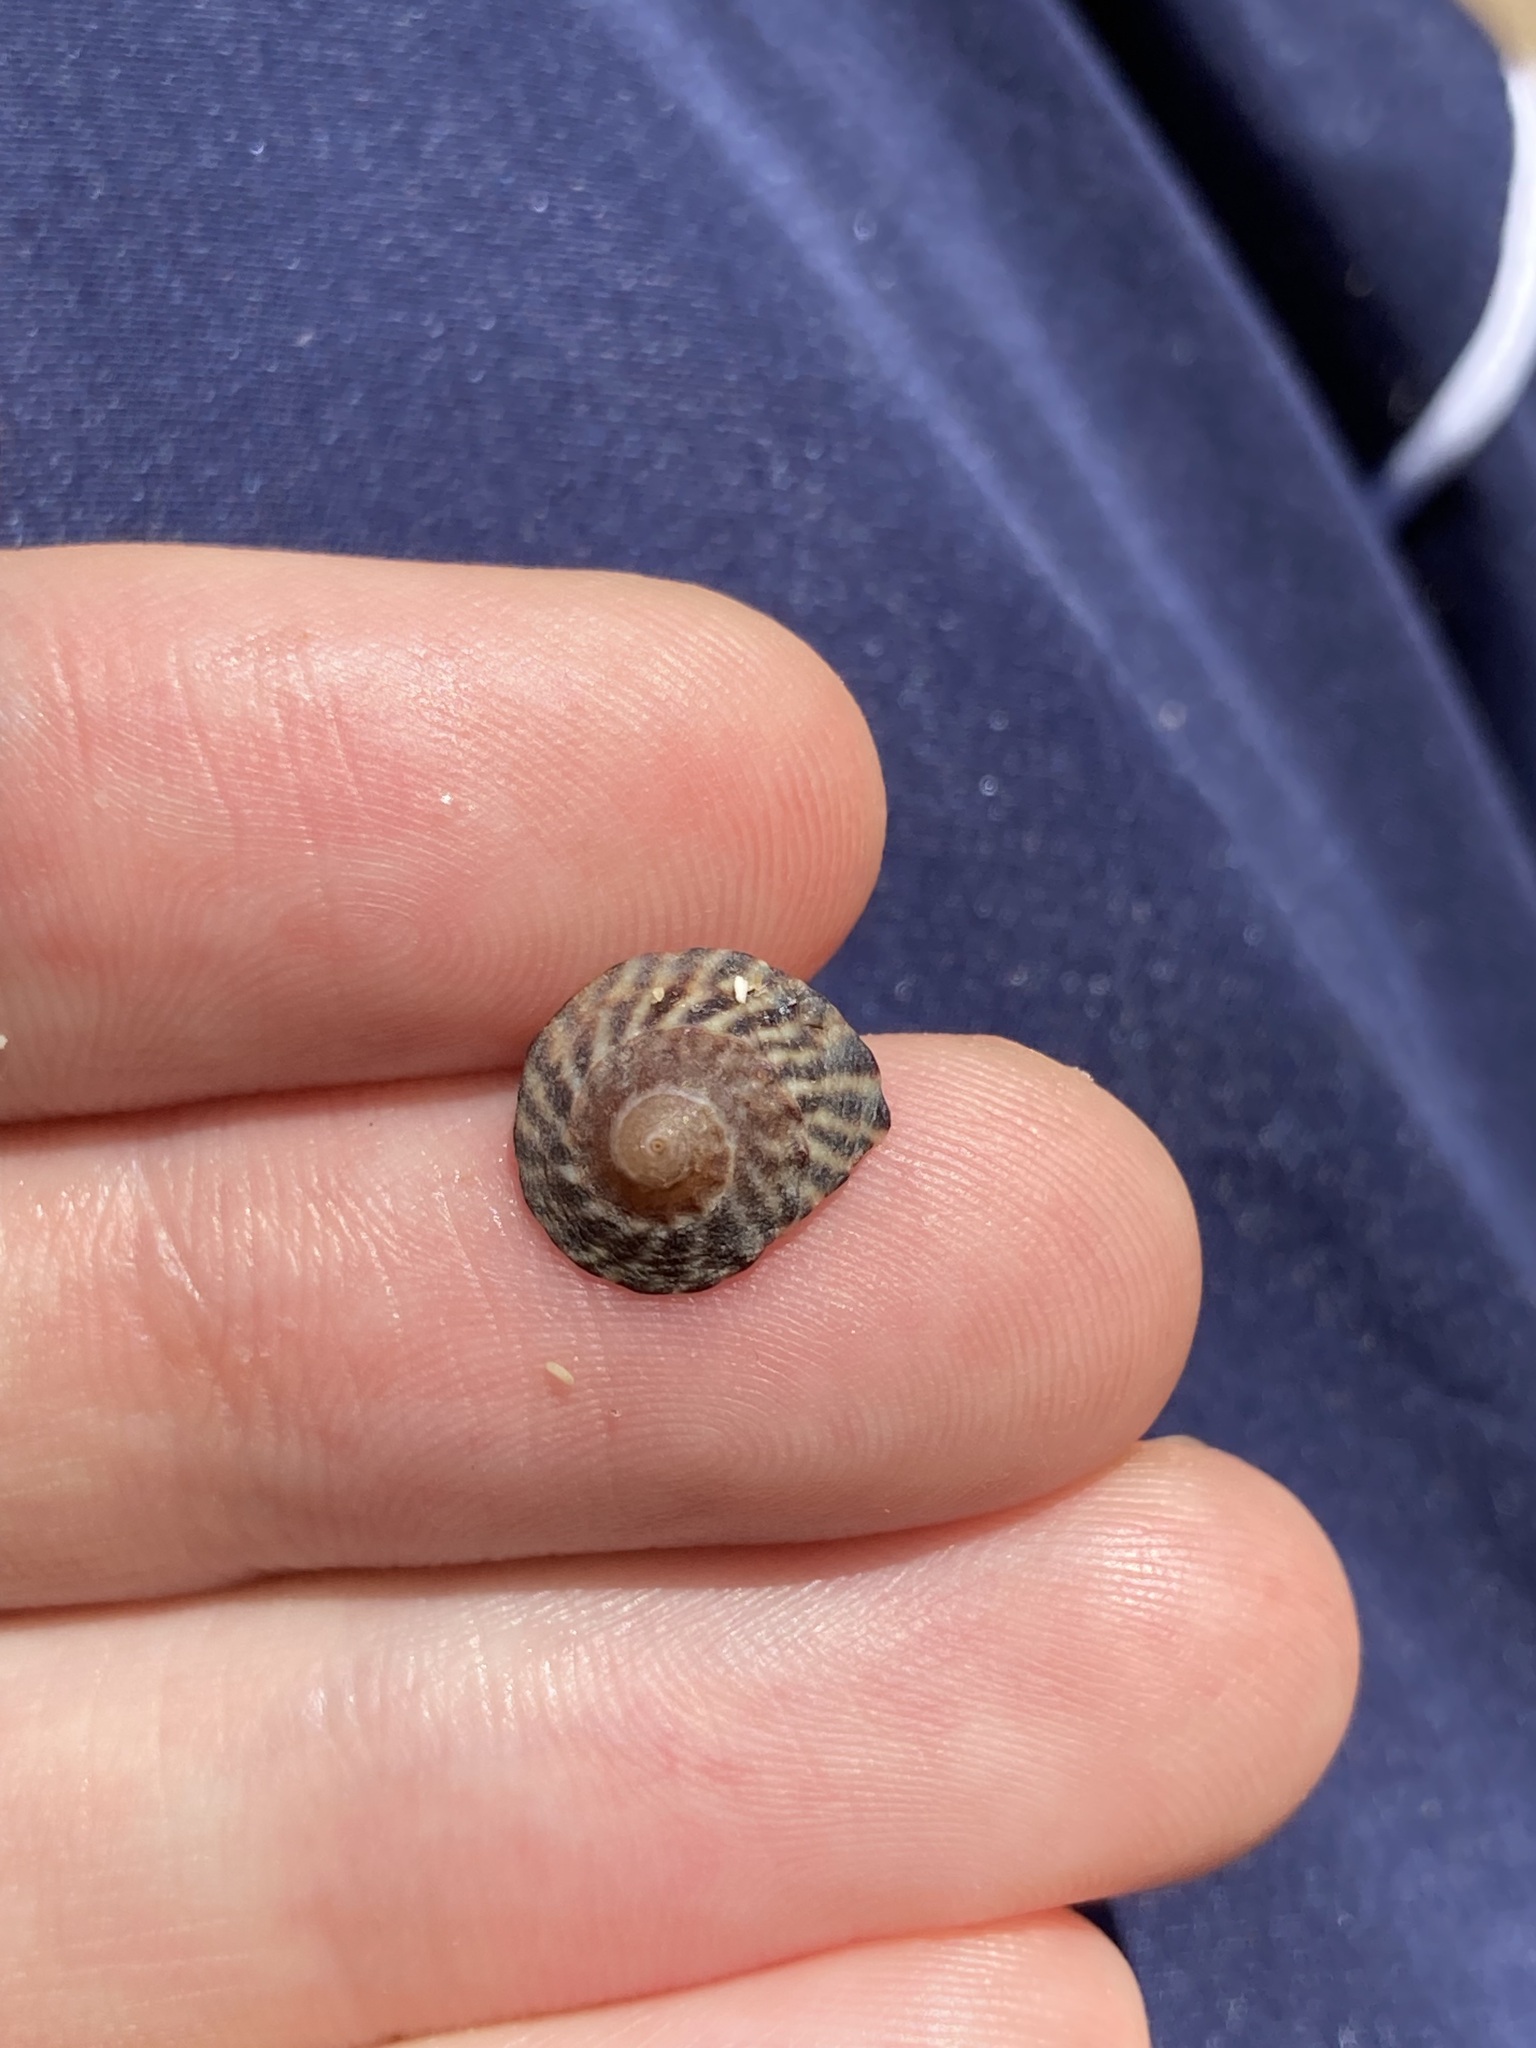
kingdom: Animalia
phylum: Mollusca
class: Gastropoda
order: Littorinimorpha
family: Littorinidae
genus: Bembicium
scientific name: Bembicium nanum
